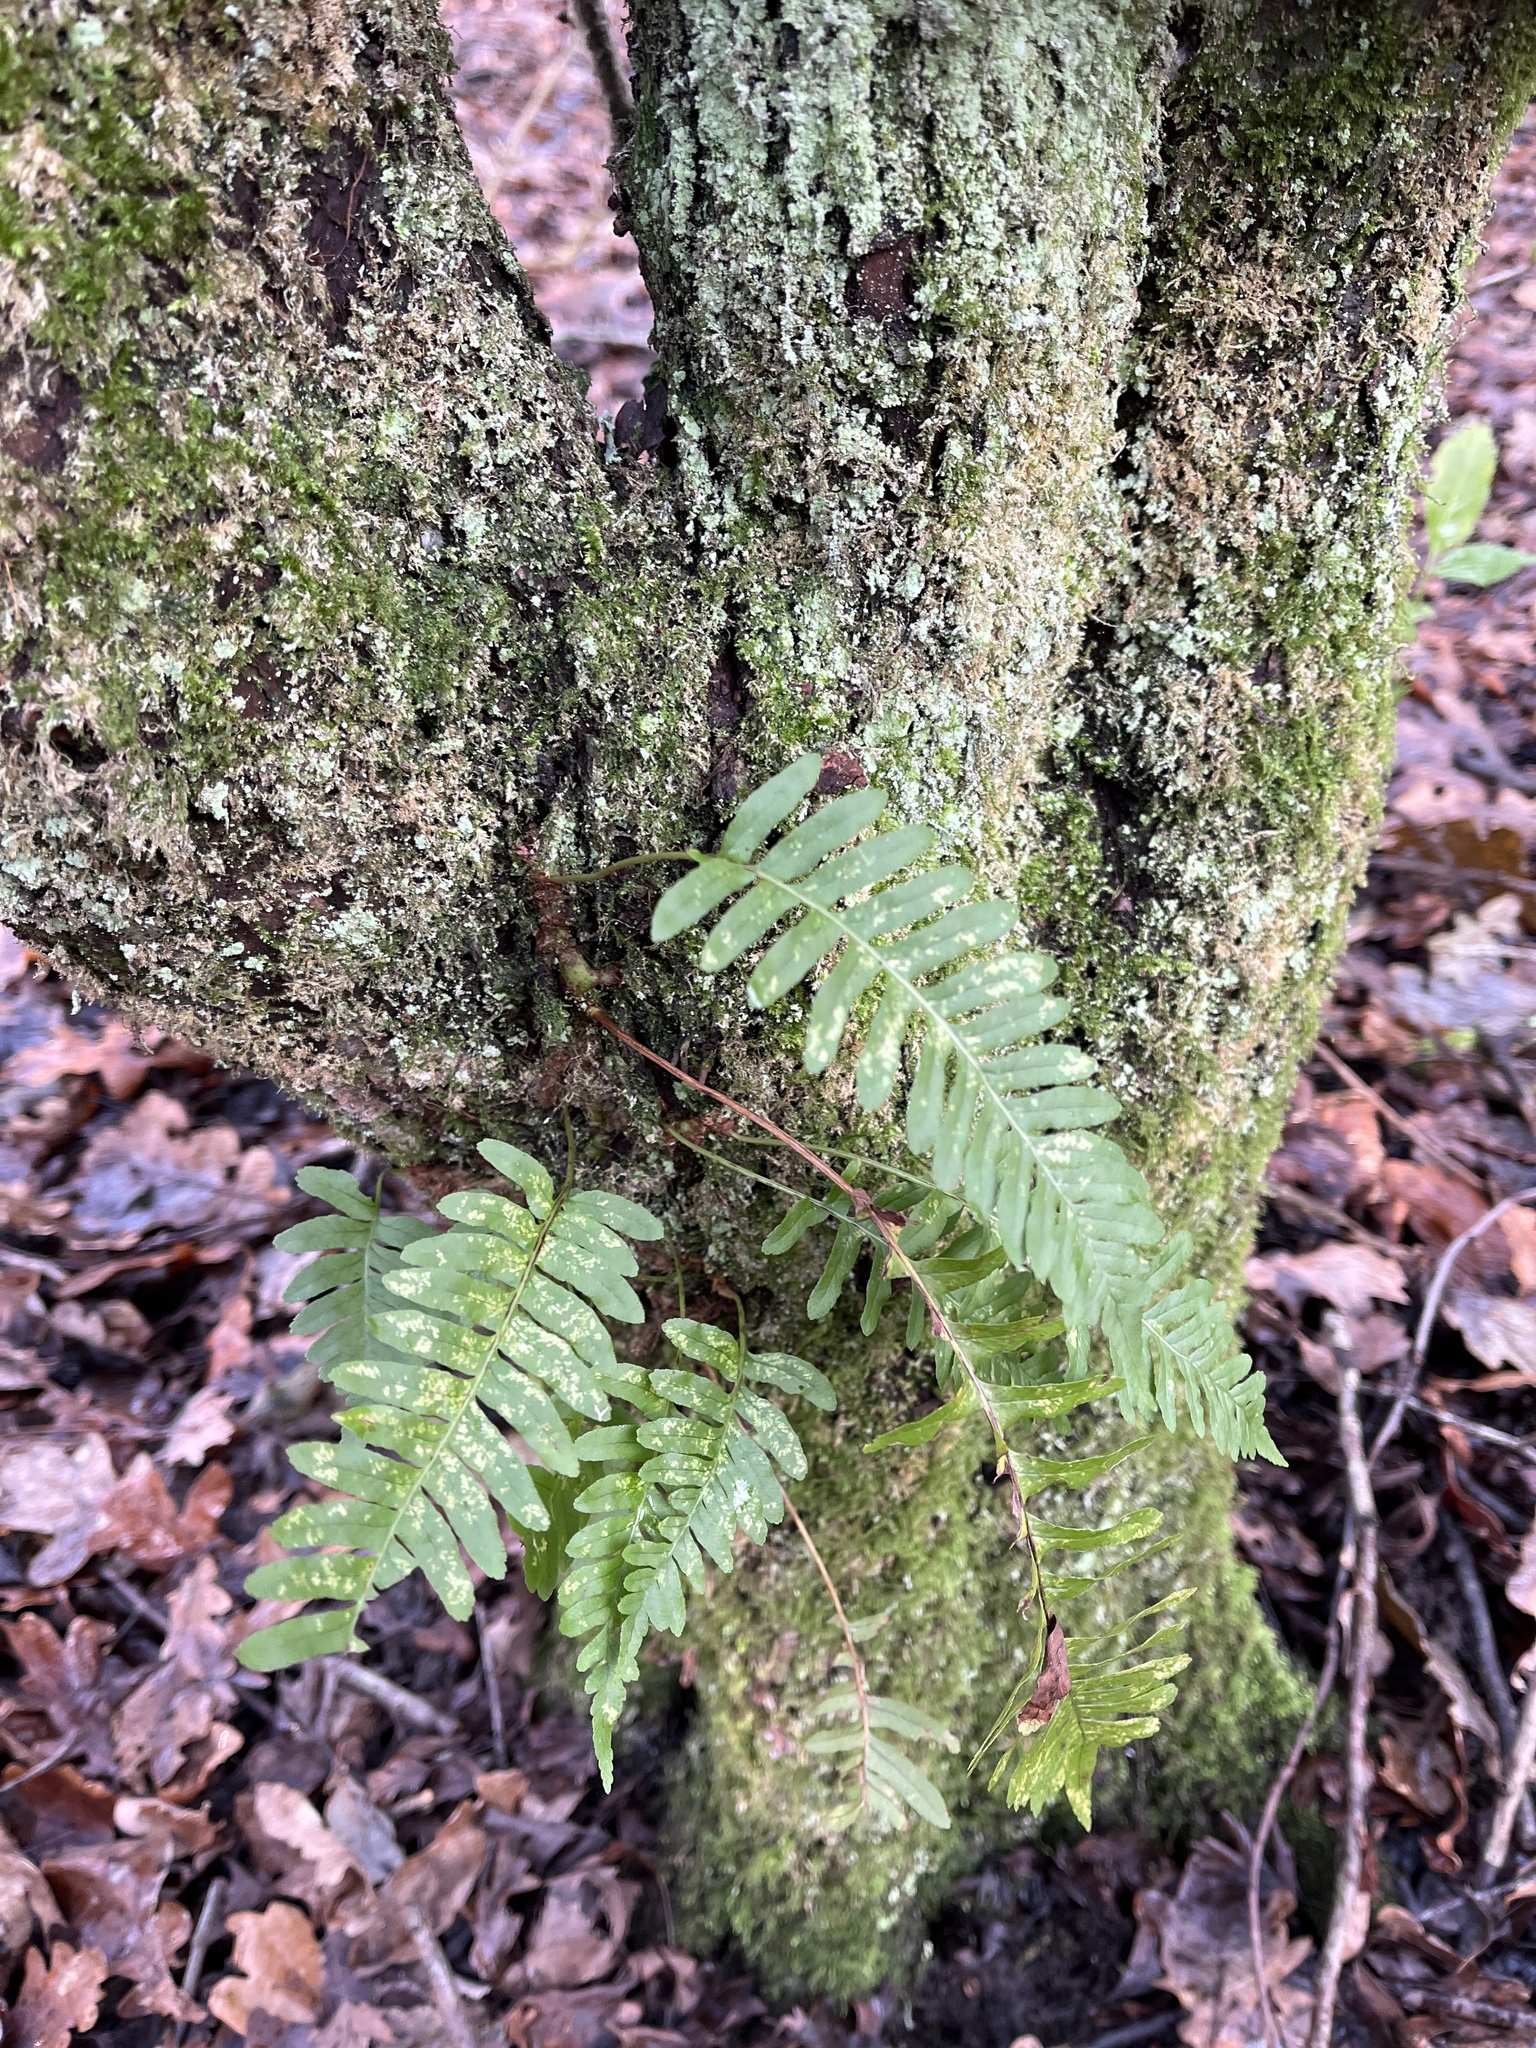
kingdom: Plantae
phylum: Tracheophyta
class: Polypodiopsida
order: Polypodiales
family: Polypodiaceae
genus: Polypodium
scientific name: Polypodium
